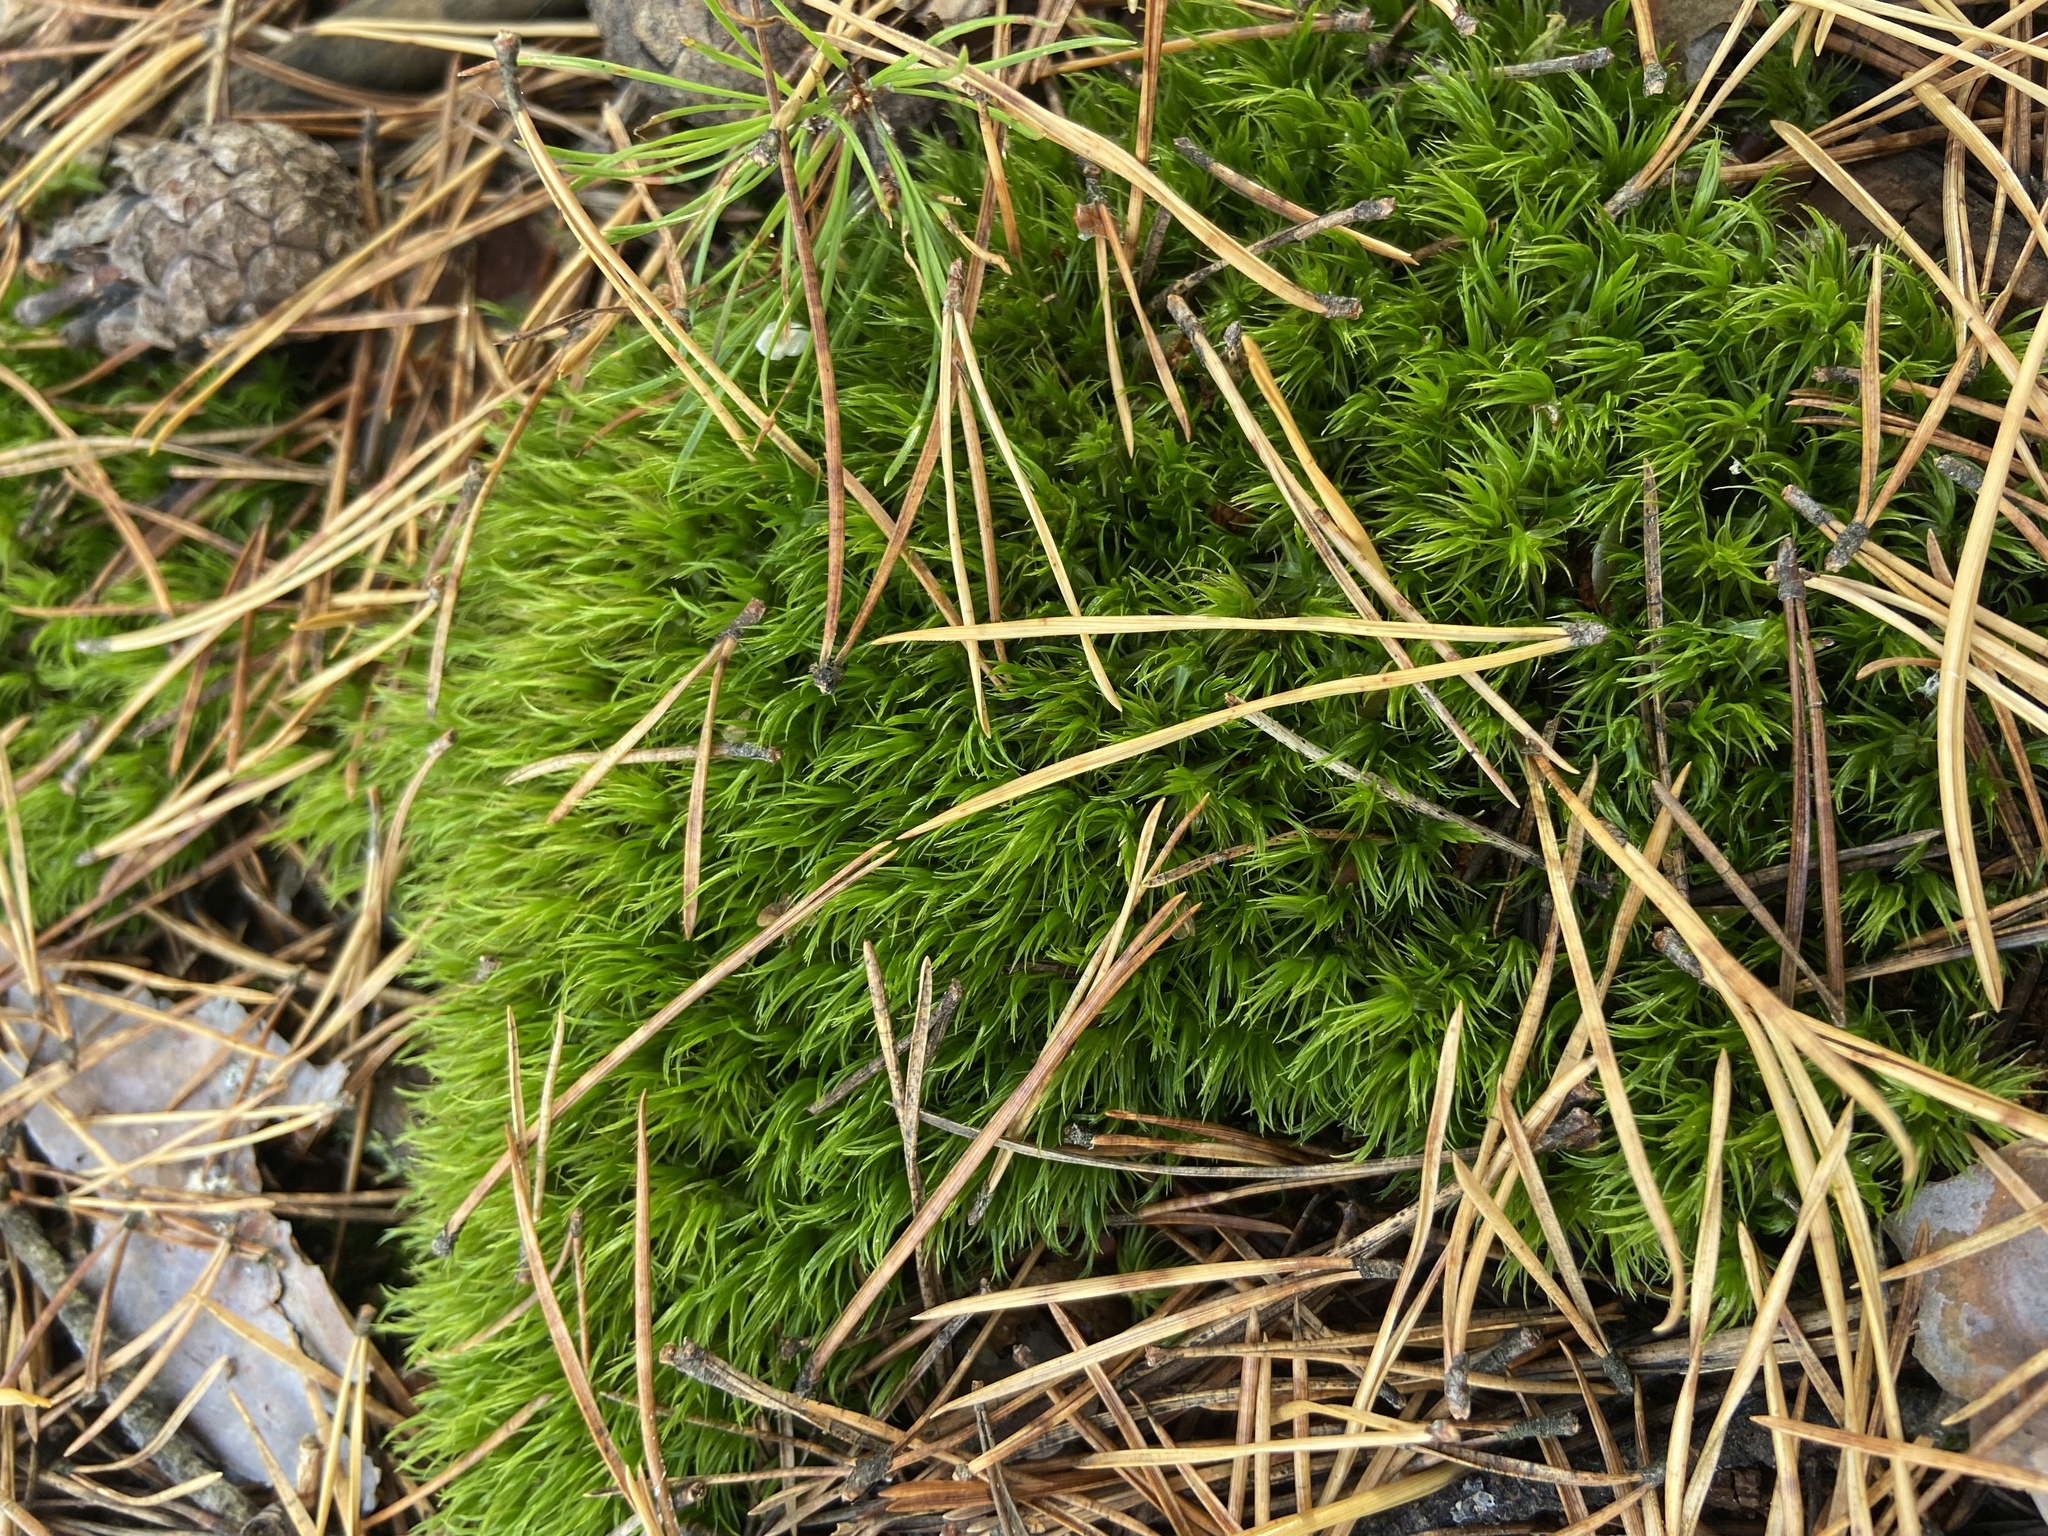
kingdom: Plantae
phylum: Bryophyta
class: Bryopsida
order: Dicranales
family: Dicranaceae
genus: Dicranum
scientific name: Dicranum scoparium
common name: Broom fork-moss
